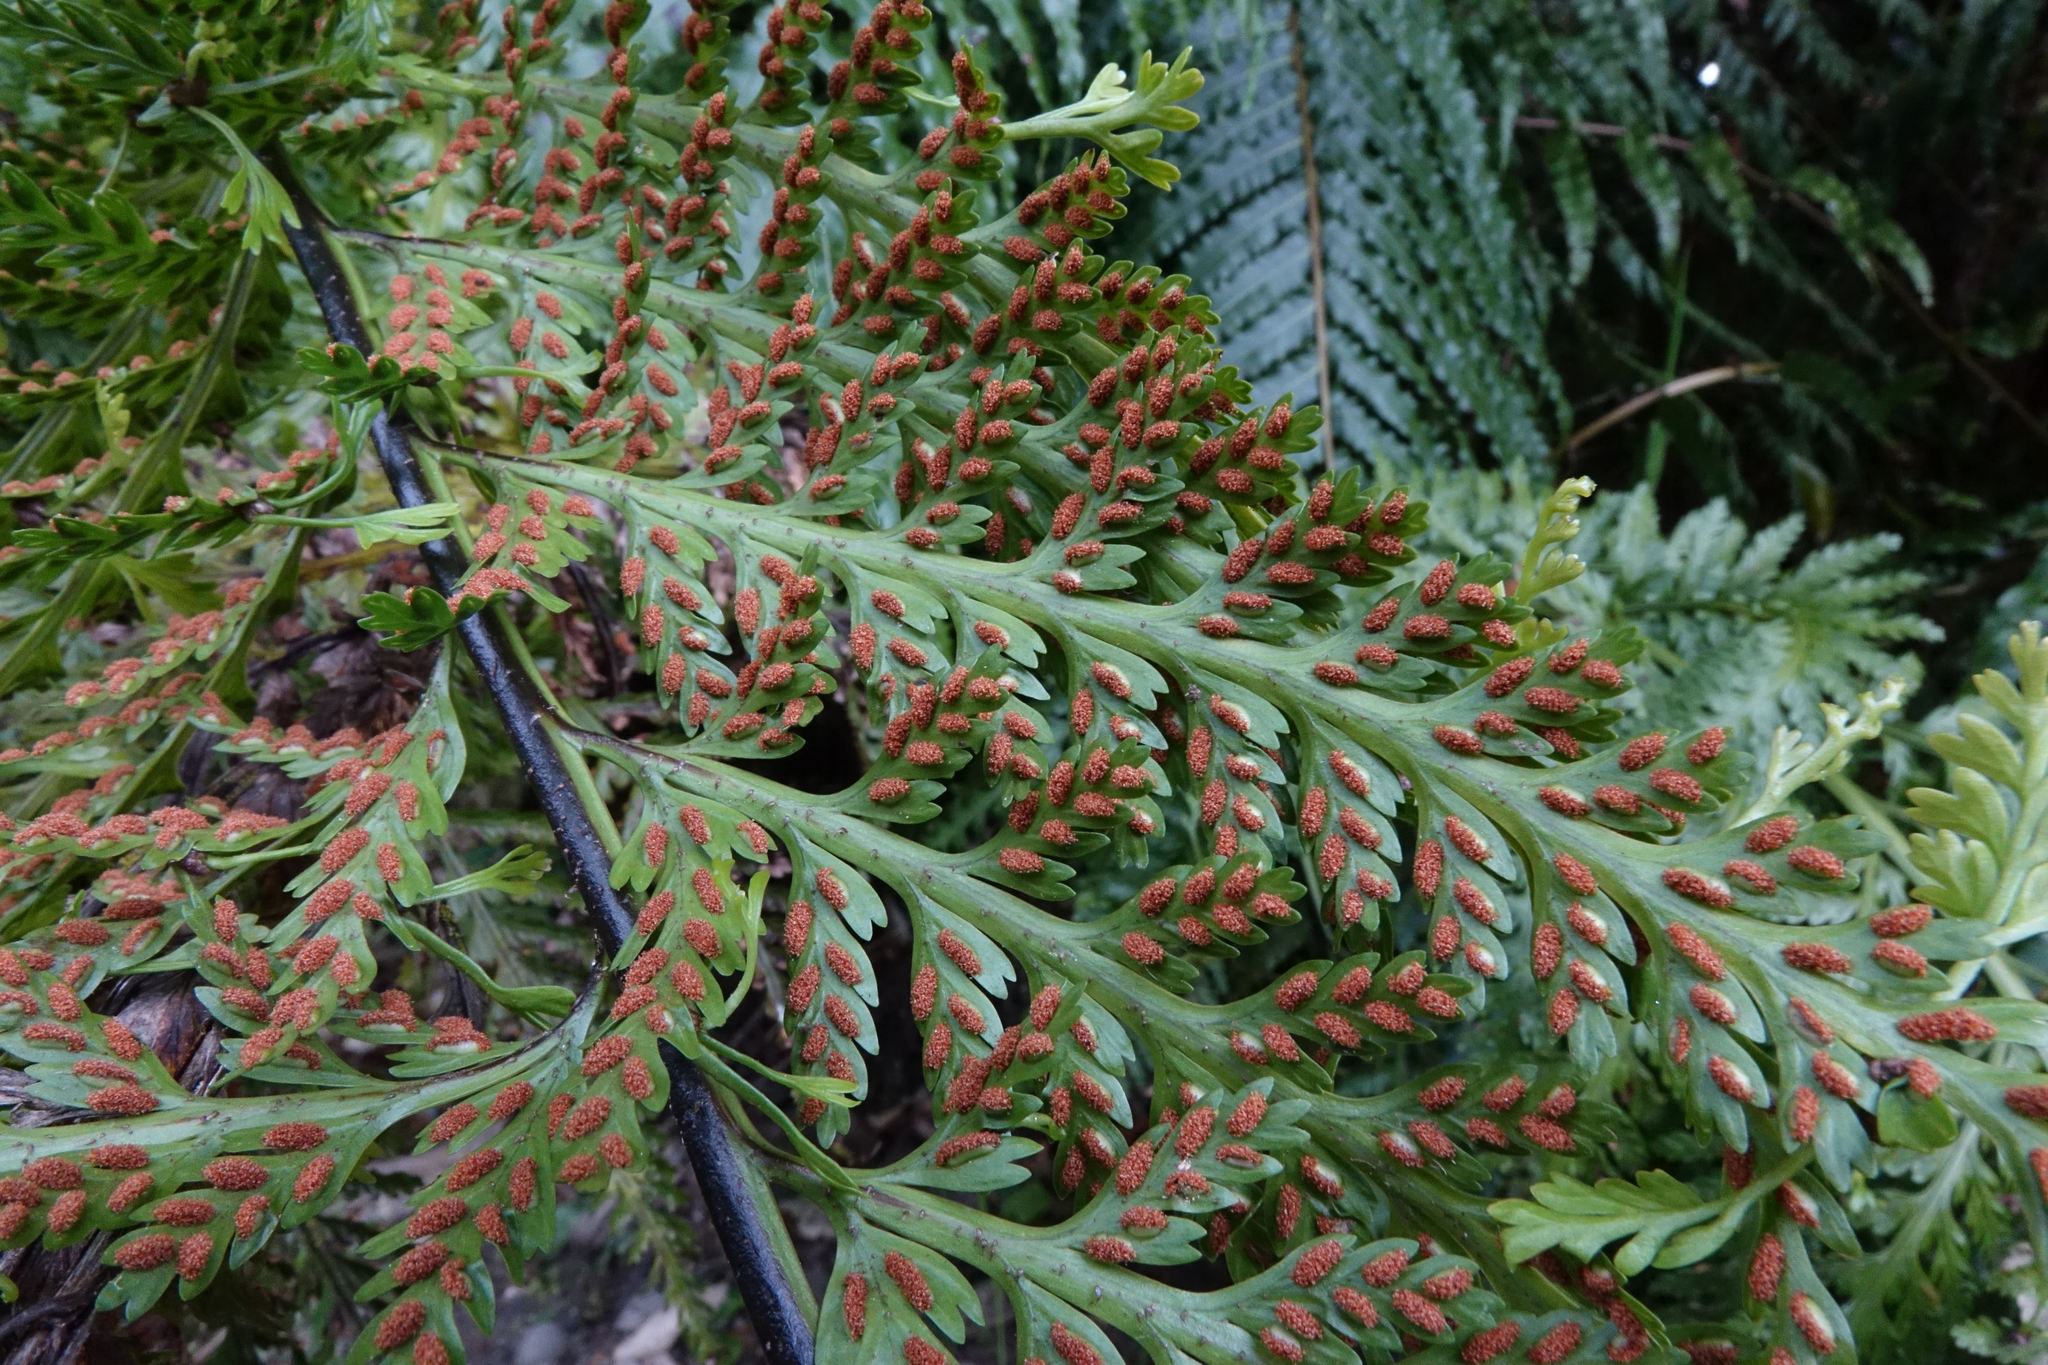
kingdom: Plantae
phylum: Tracheophyta
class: Polypodiopsida
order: Polypodiales
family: Aspleniaceae
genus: Asplenium
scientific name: Asplenium bulbiferum
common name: Mother fern
